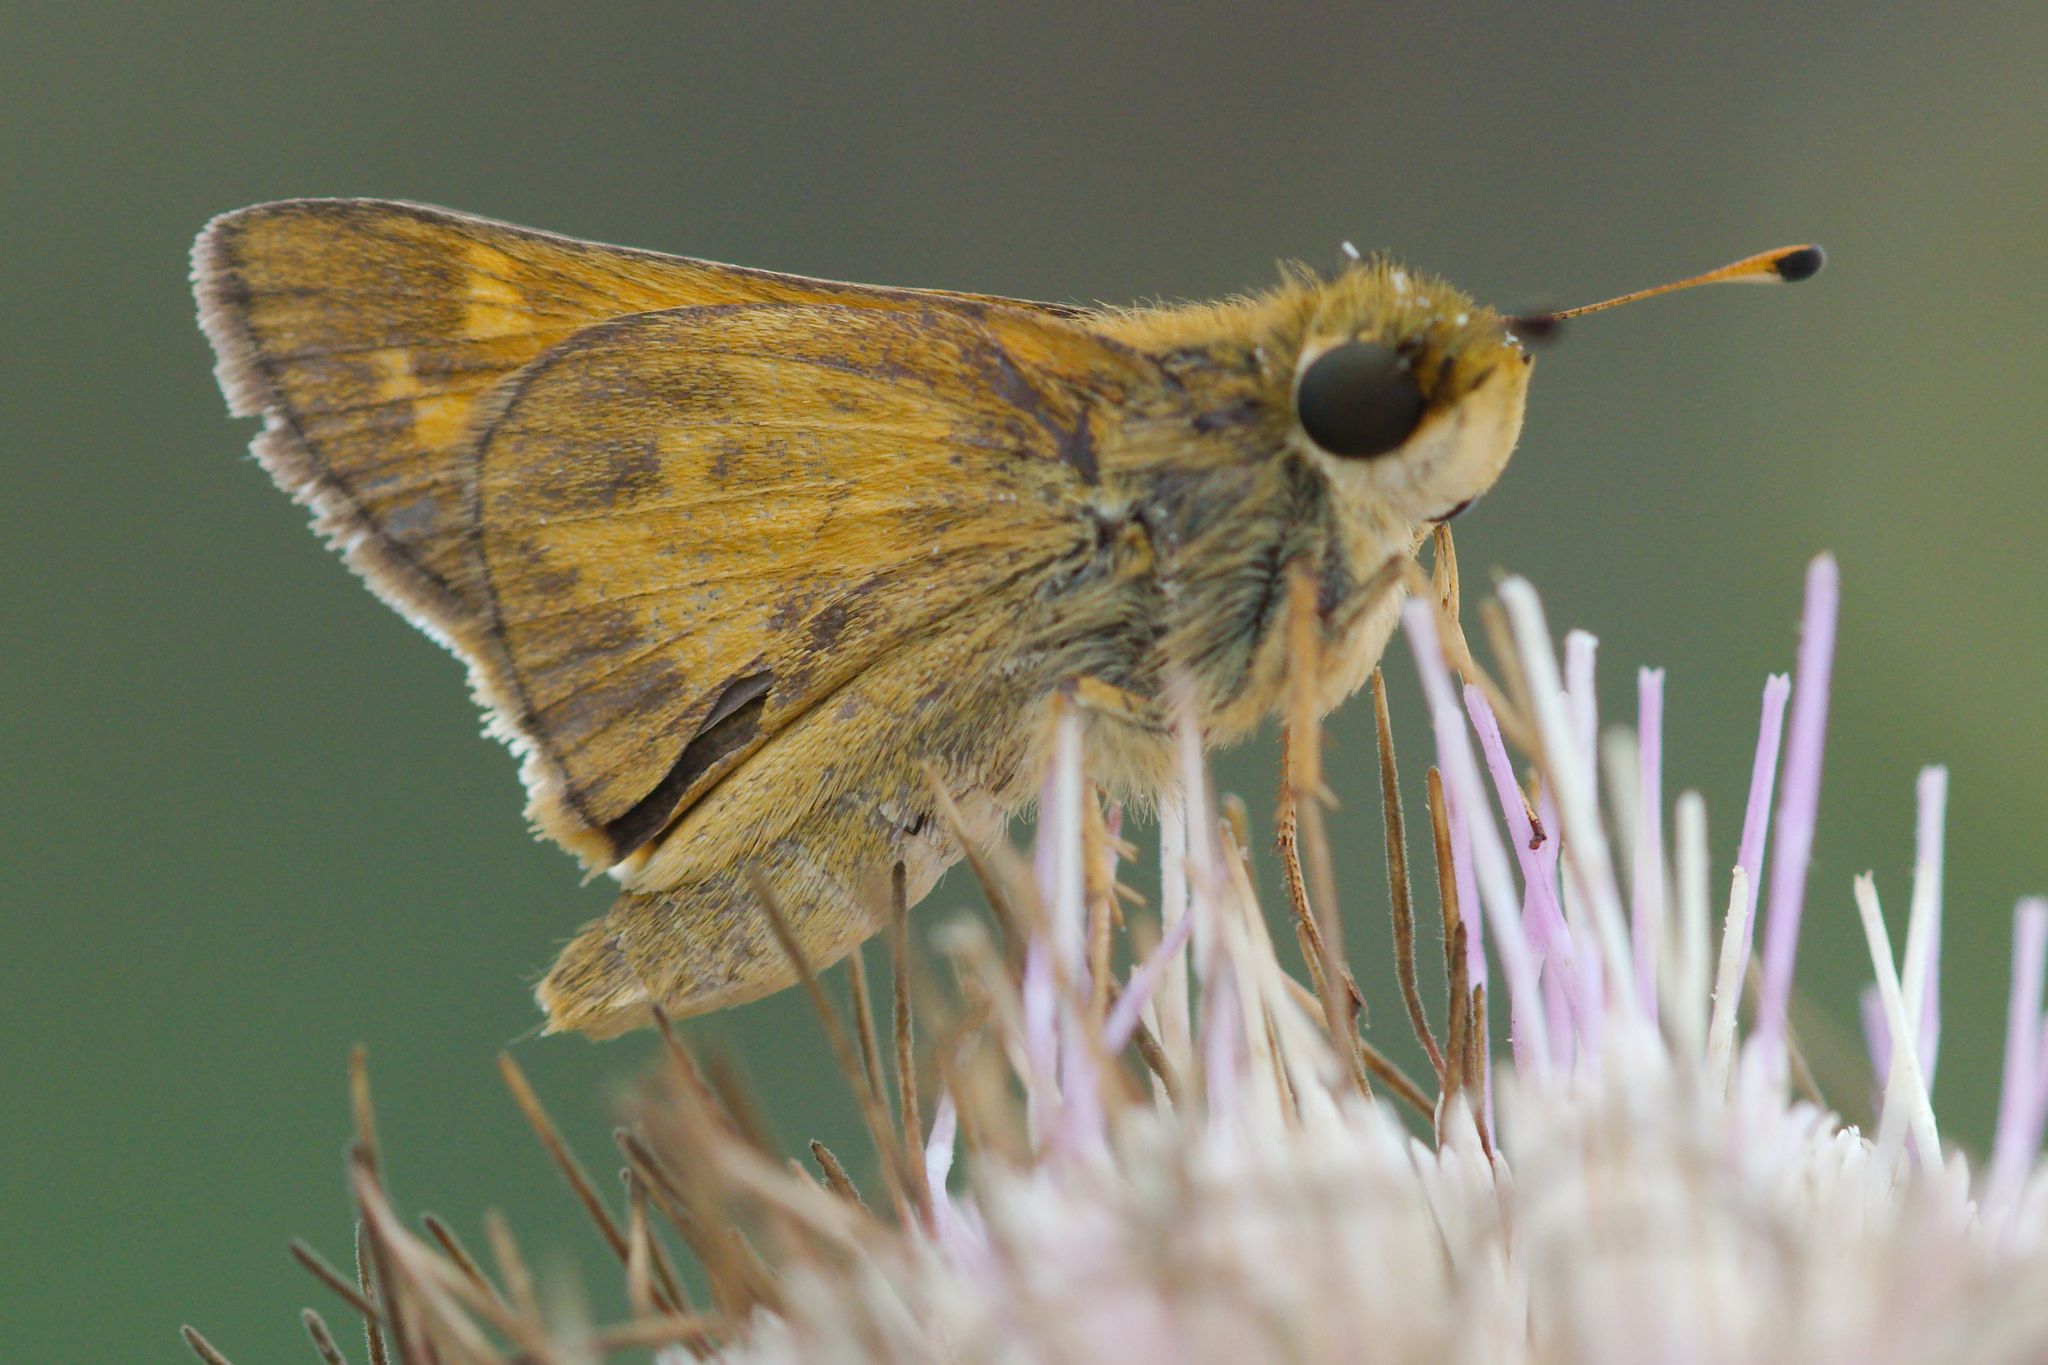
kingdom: Animalia
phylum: Arthropoda
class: Insecta
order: Lepidoptera
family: Hesperiidae
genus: Atalopedes
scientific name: Atalopedes
